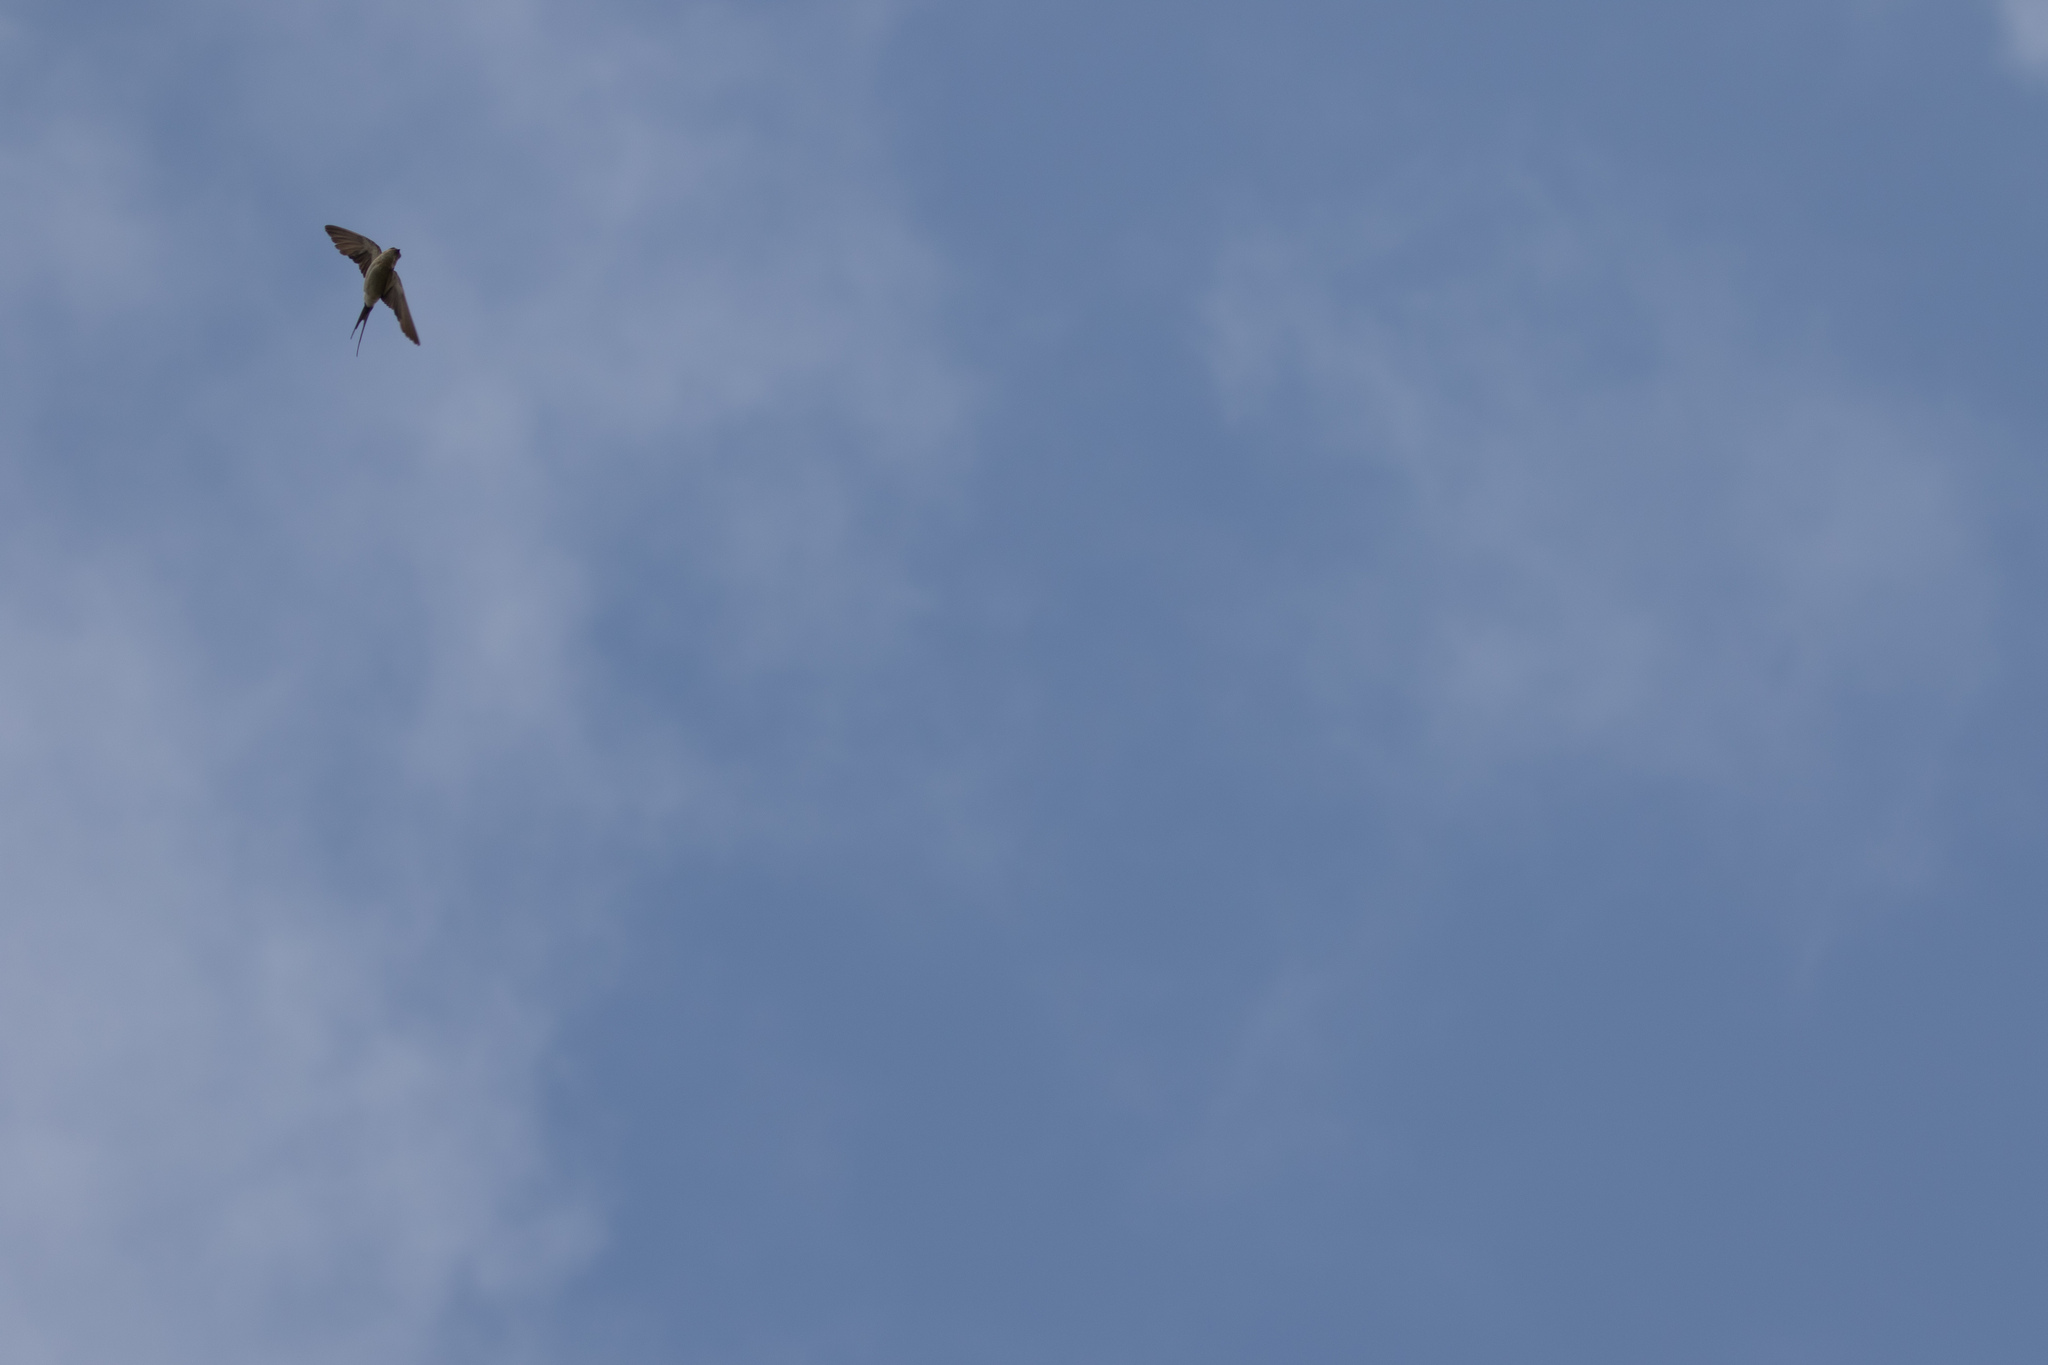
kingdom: Animalia
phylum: Chordata
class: Aves
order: Passeriformes
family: Hirundinidae
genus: Cecropis
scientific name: Cecropis daurica
